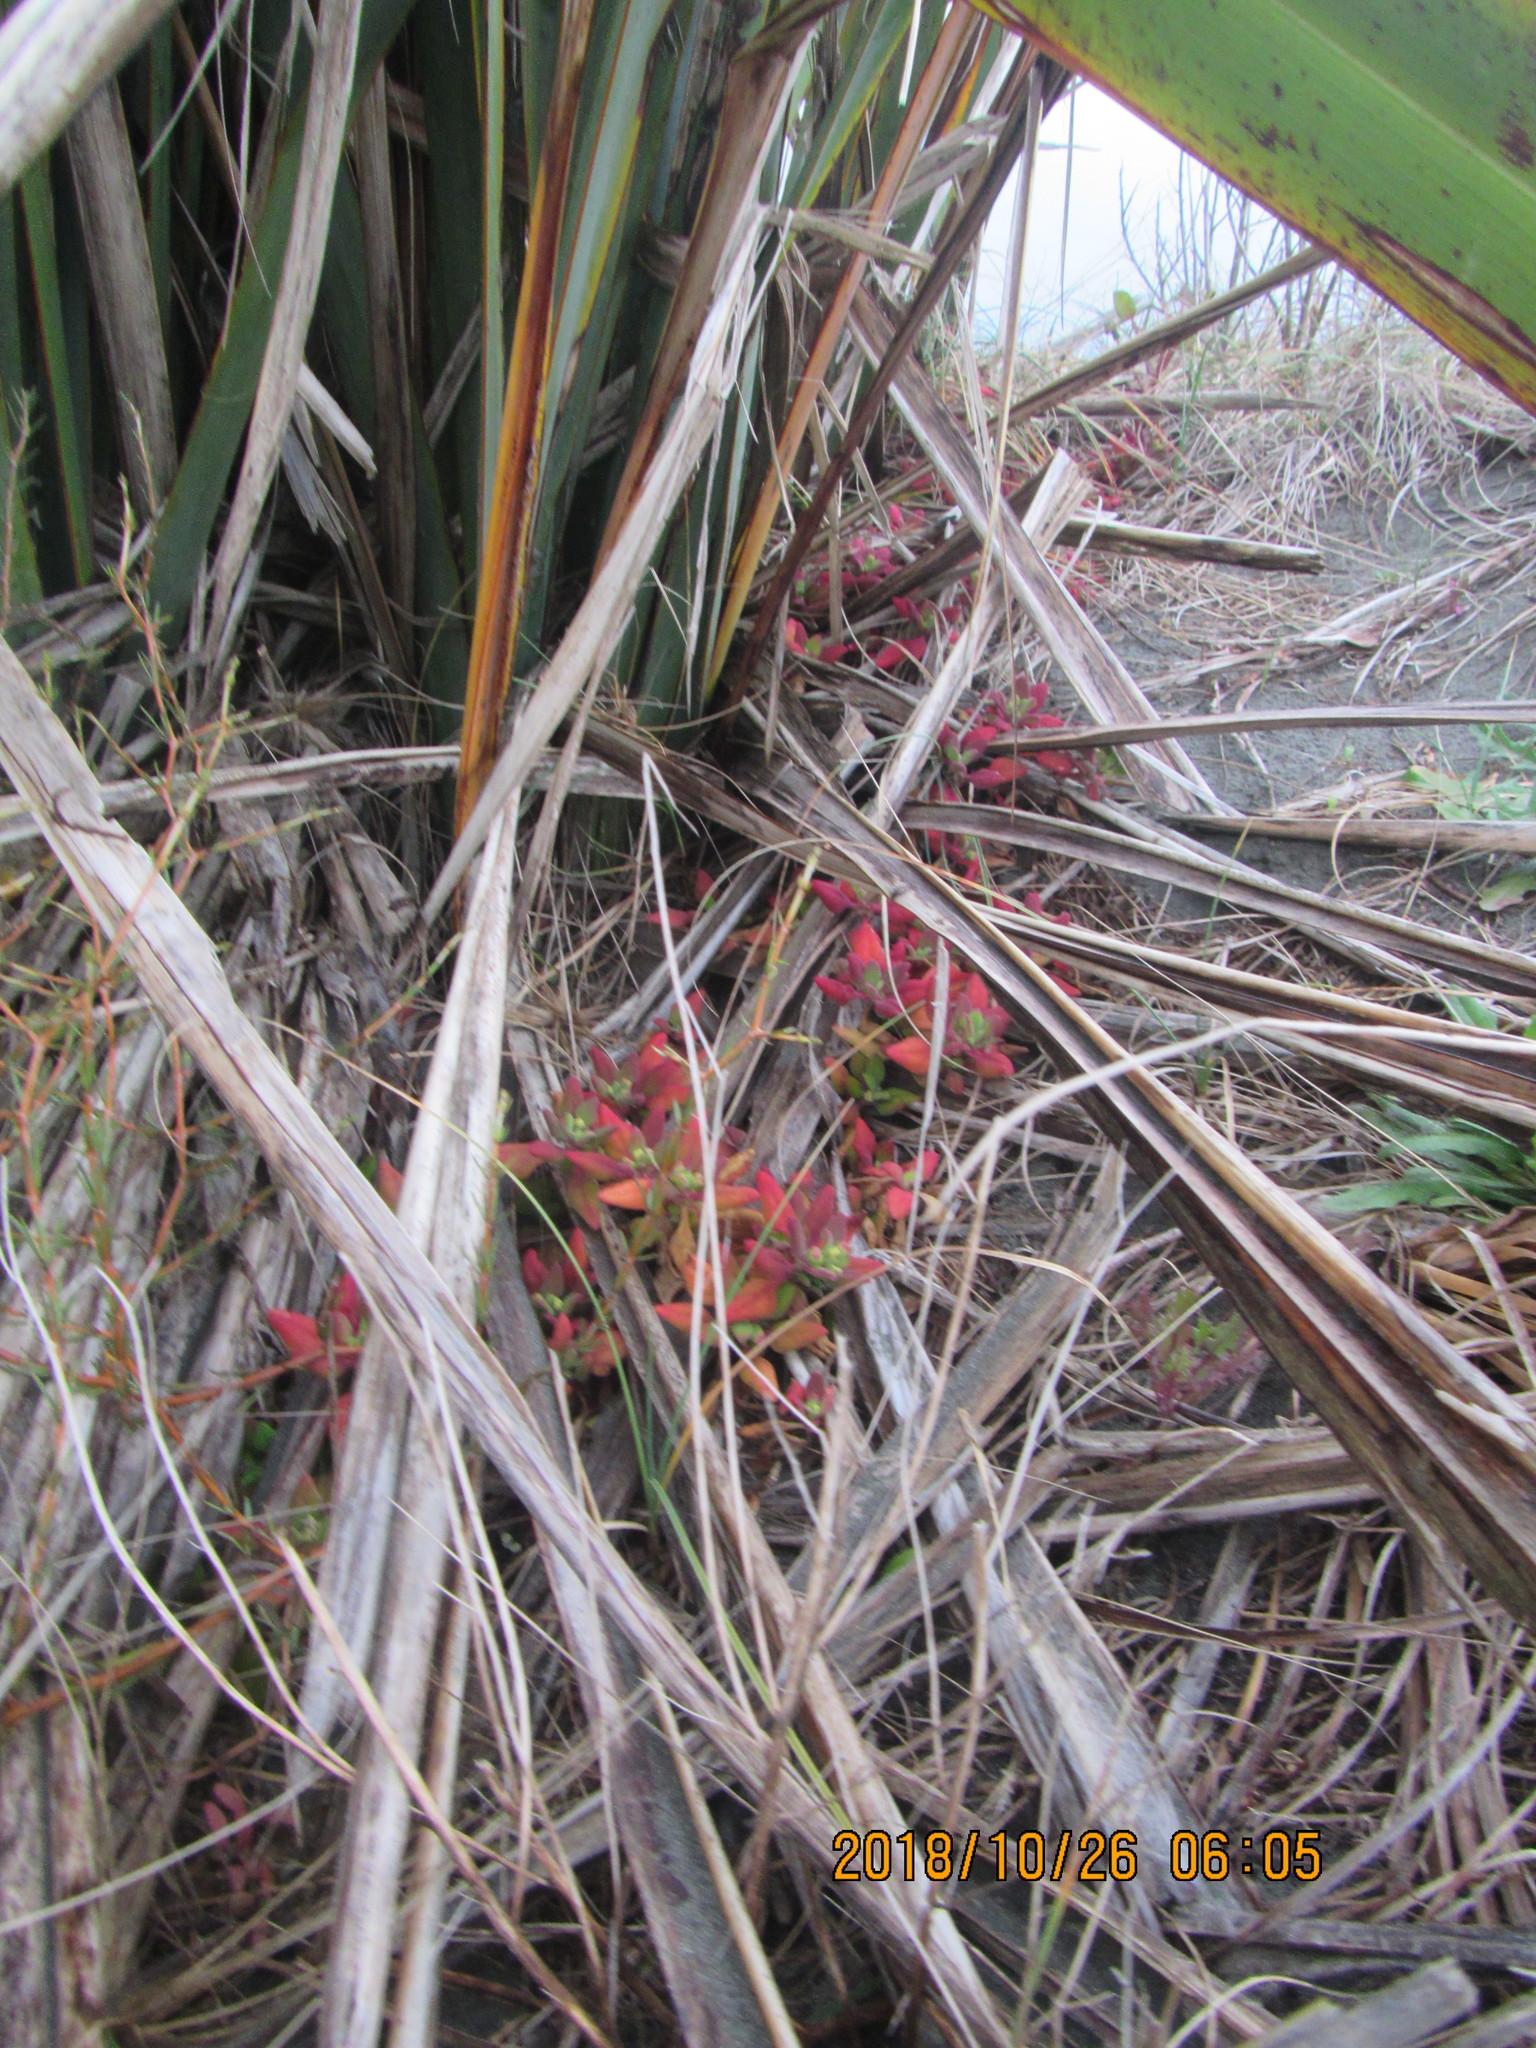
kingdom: Plantae
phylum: Tracheophyta
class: Magnoliopsida
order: Caryophyllales
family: Aizoaceae
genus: Tetragonia
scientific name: Tetragonia implexicoma
